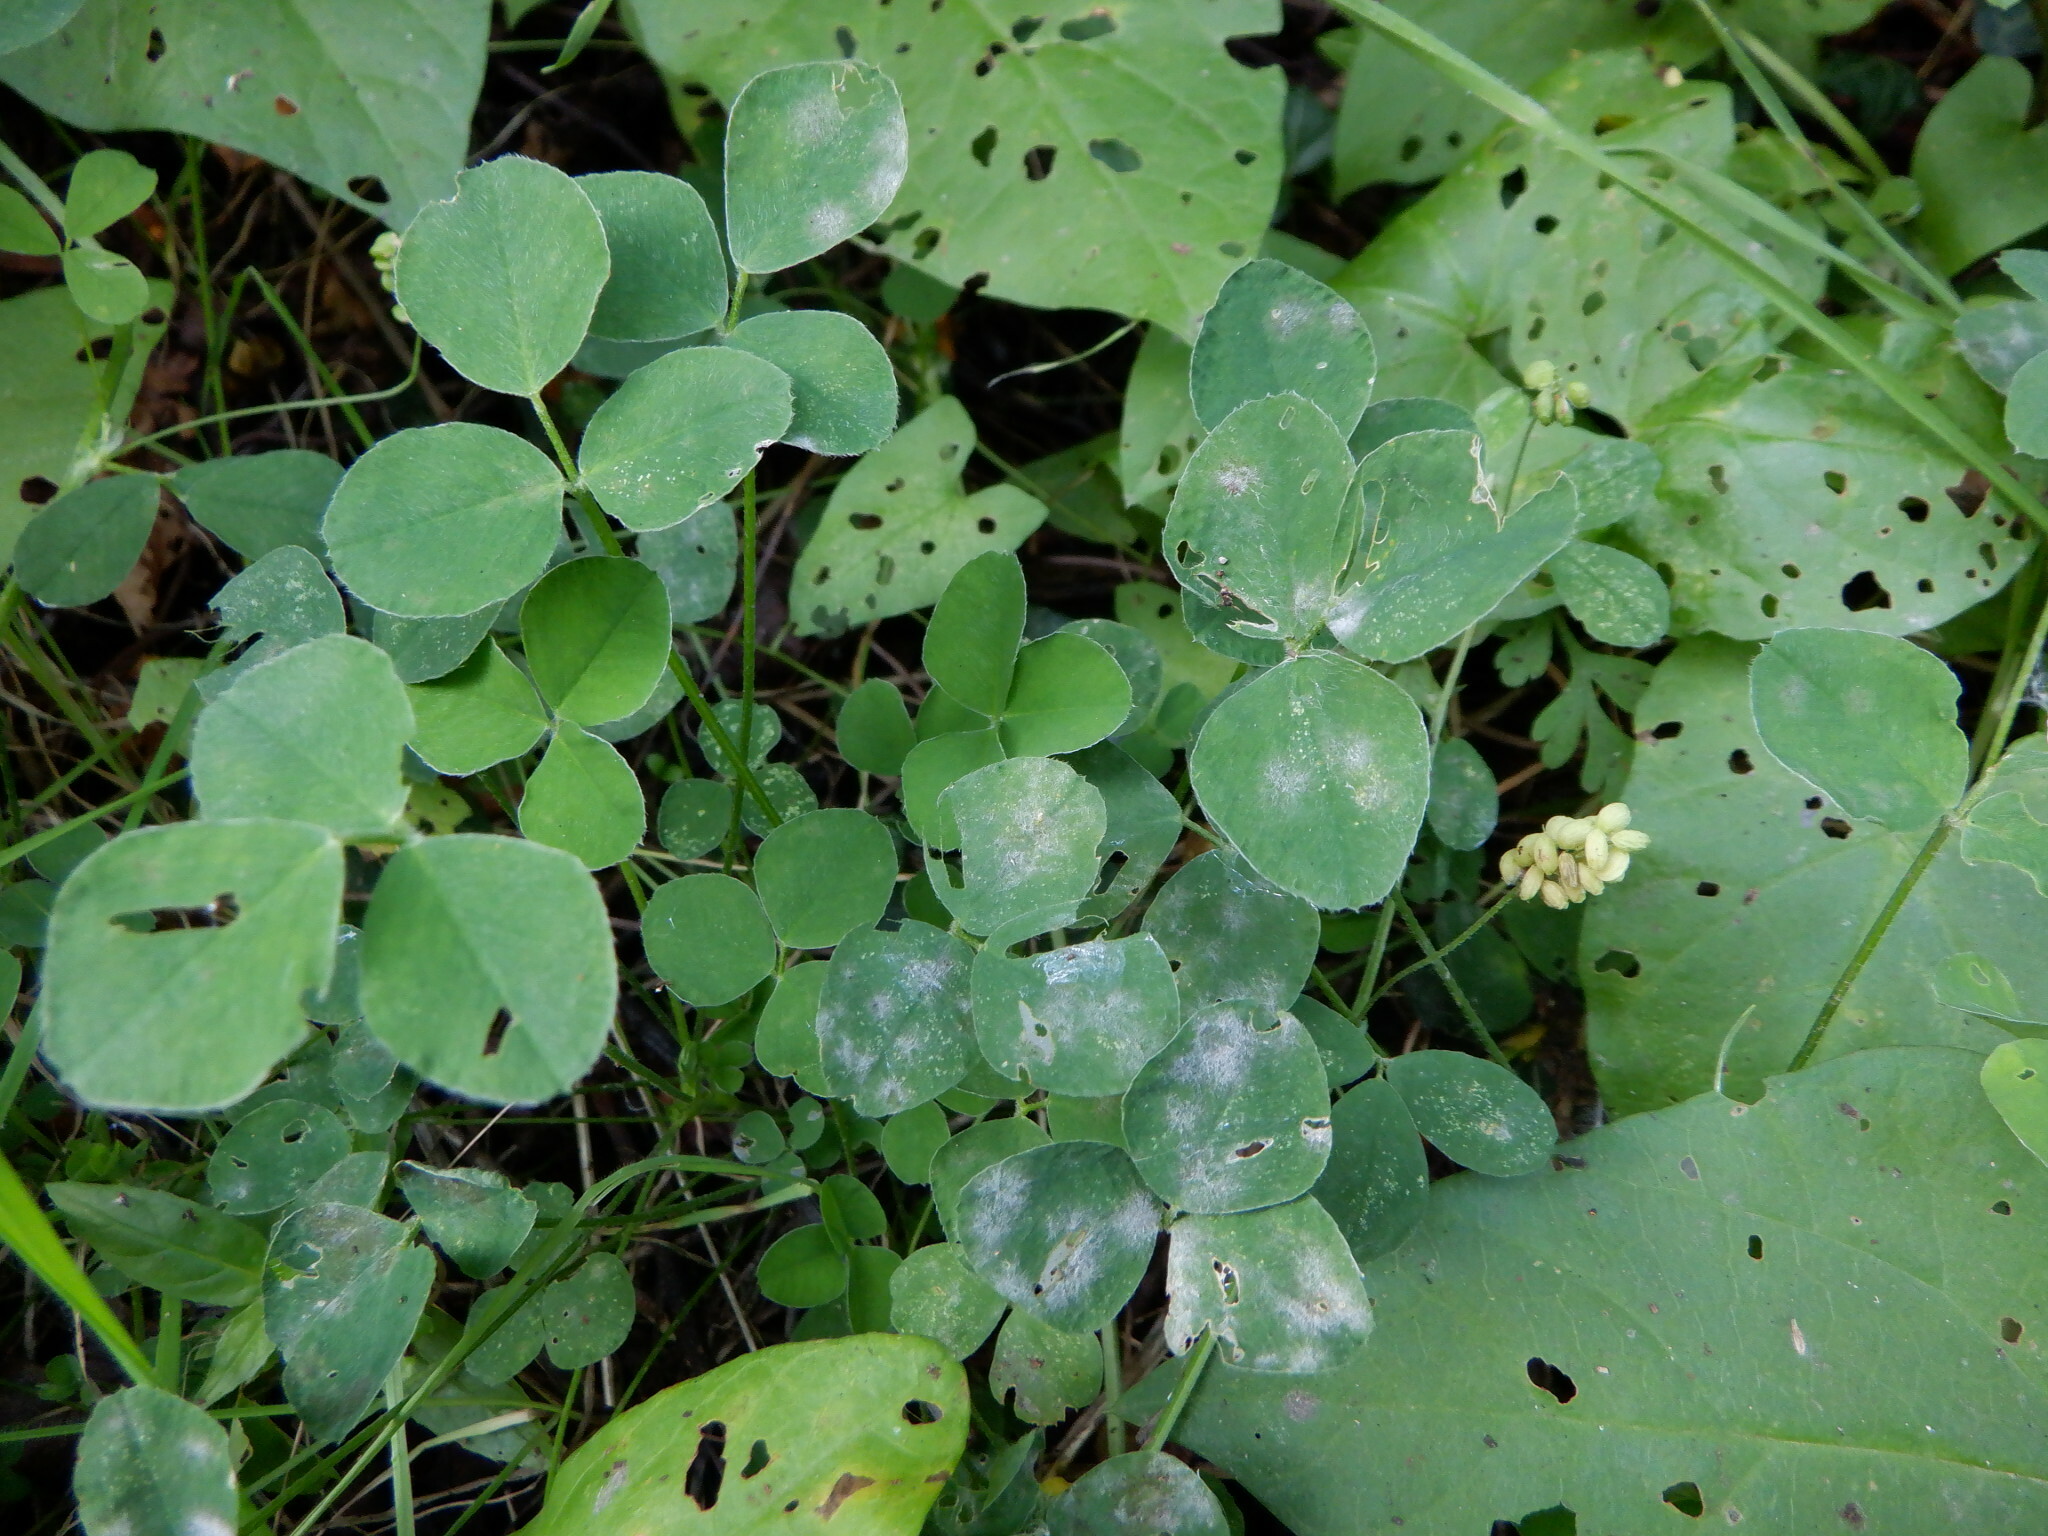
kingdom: Plantae
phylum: Tracheophyta
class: Magnoliopsida
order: Fabales
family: Fabaceae
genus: Medicago
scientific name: Medicago lupulina
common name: Black medick
